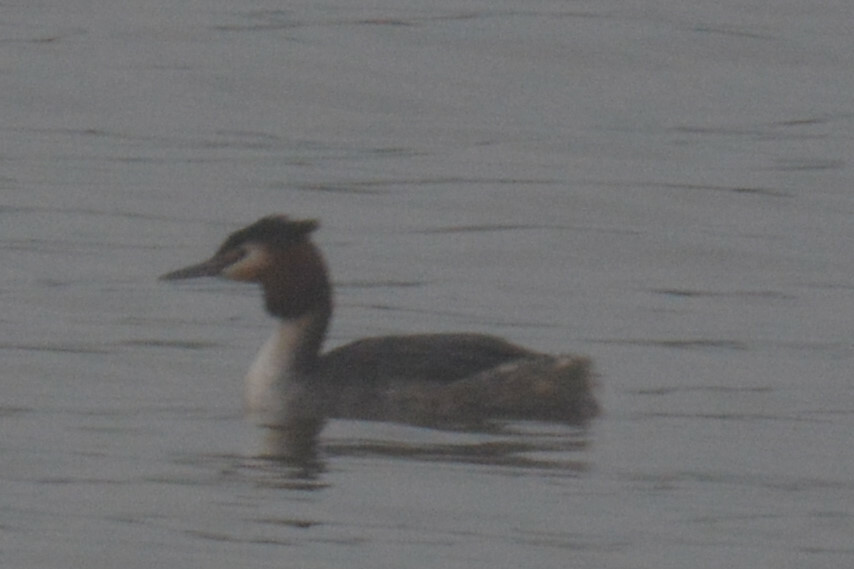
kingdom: Animalia
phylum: Chordata
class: Aves
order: Podicipediformes
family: Podicipedidae
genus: Podiceps
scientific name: Podiceps cristatus
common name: Great crested grebe
